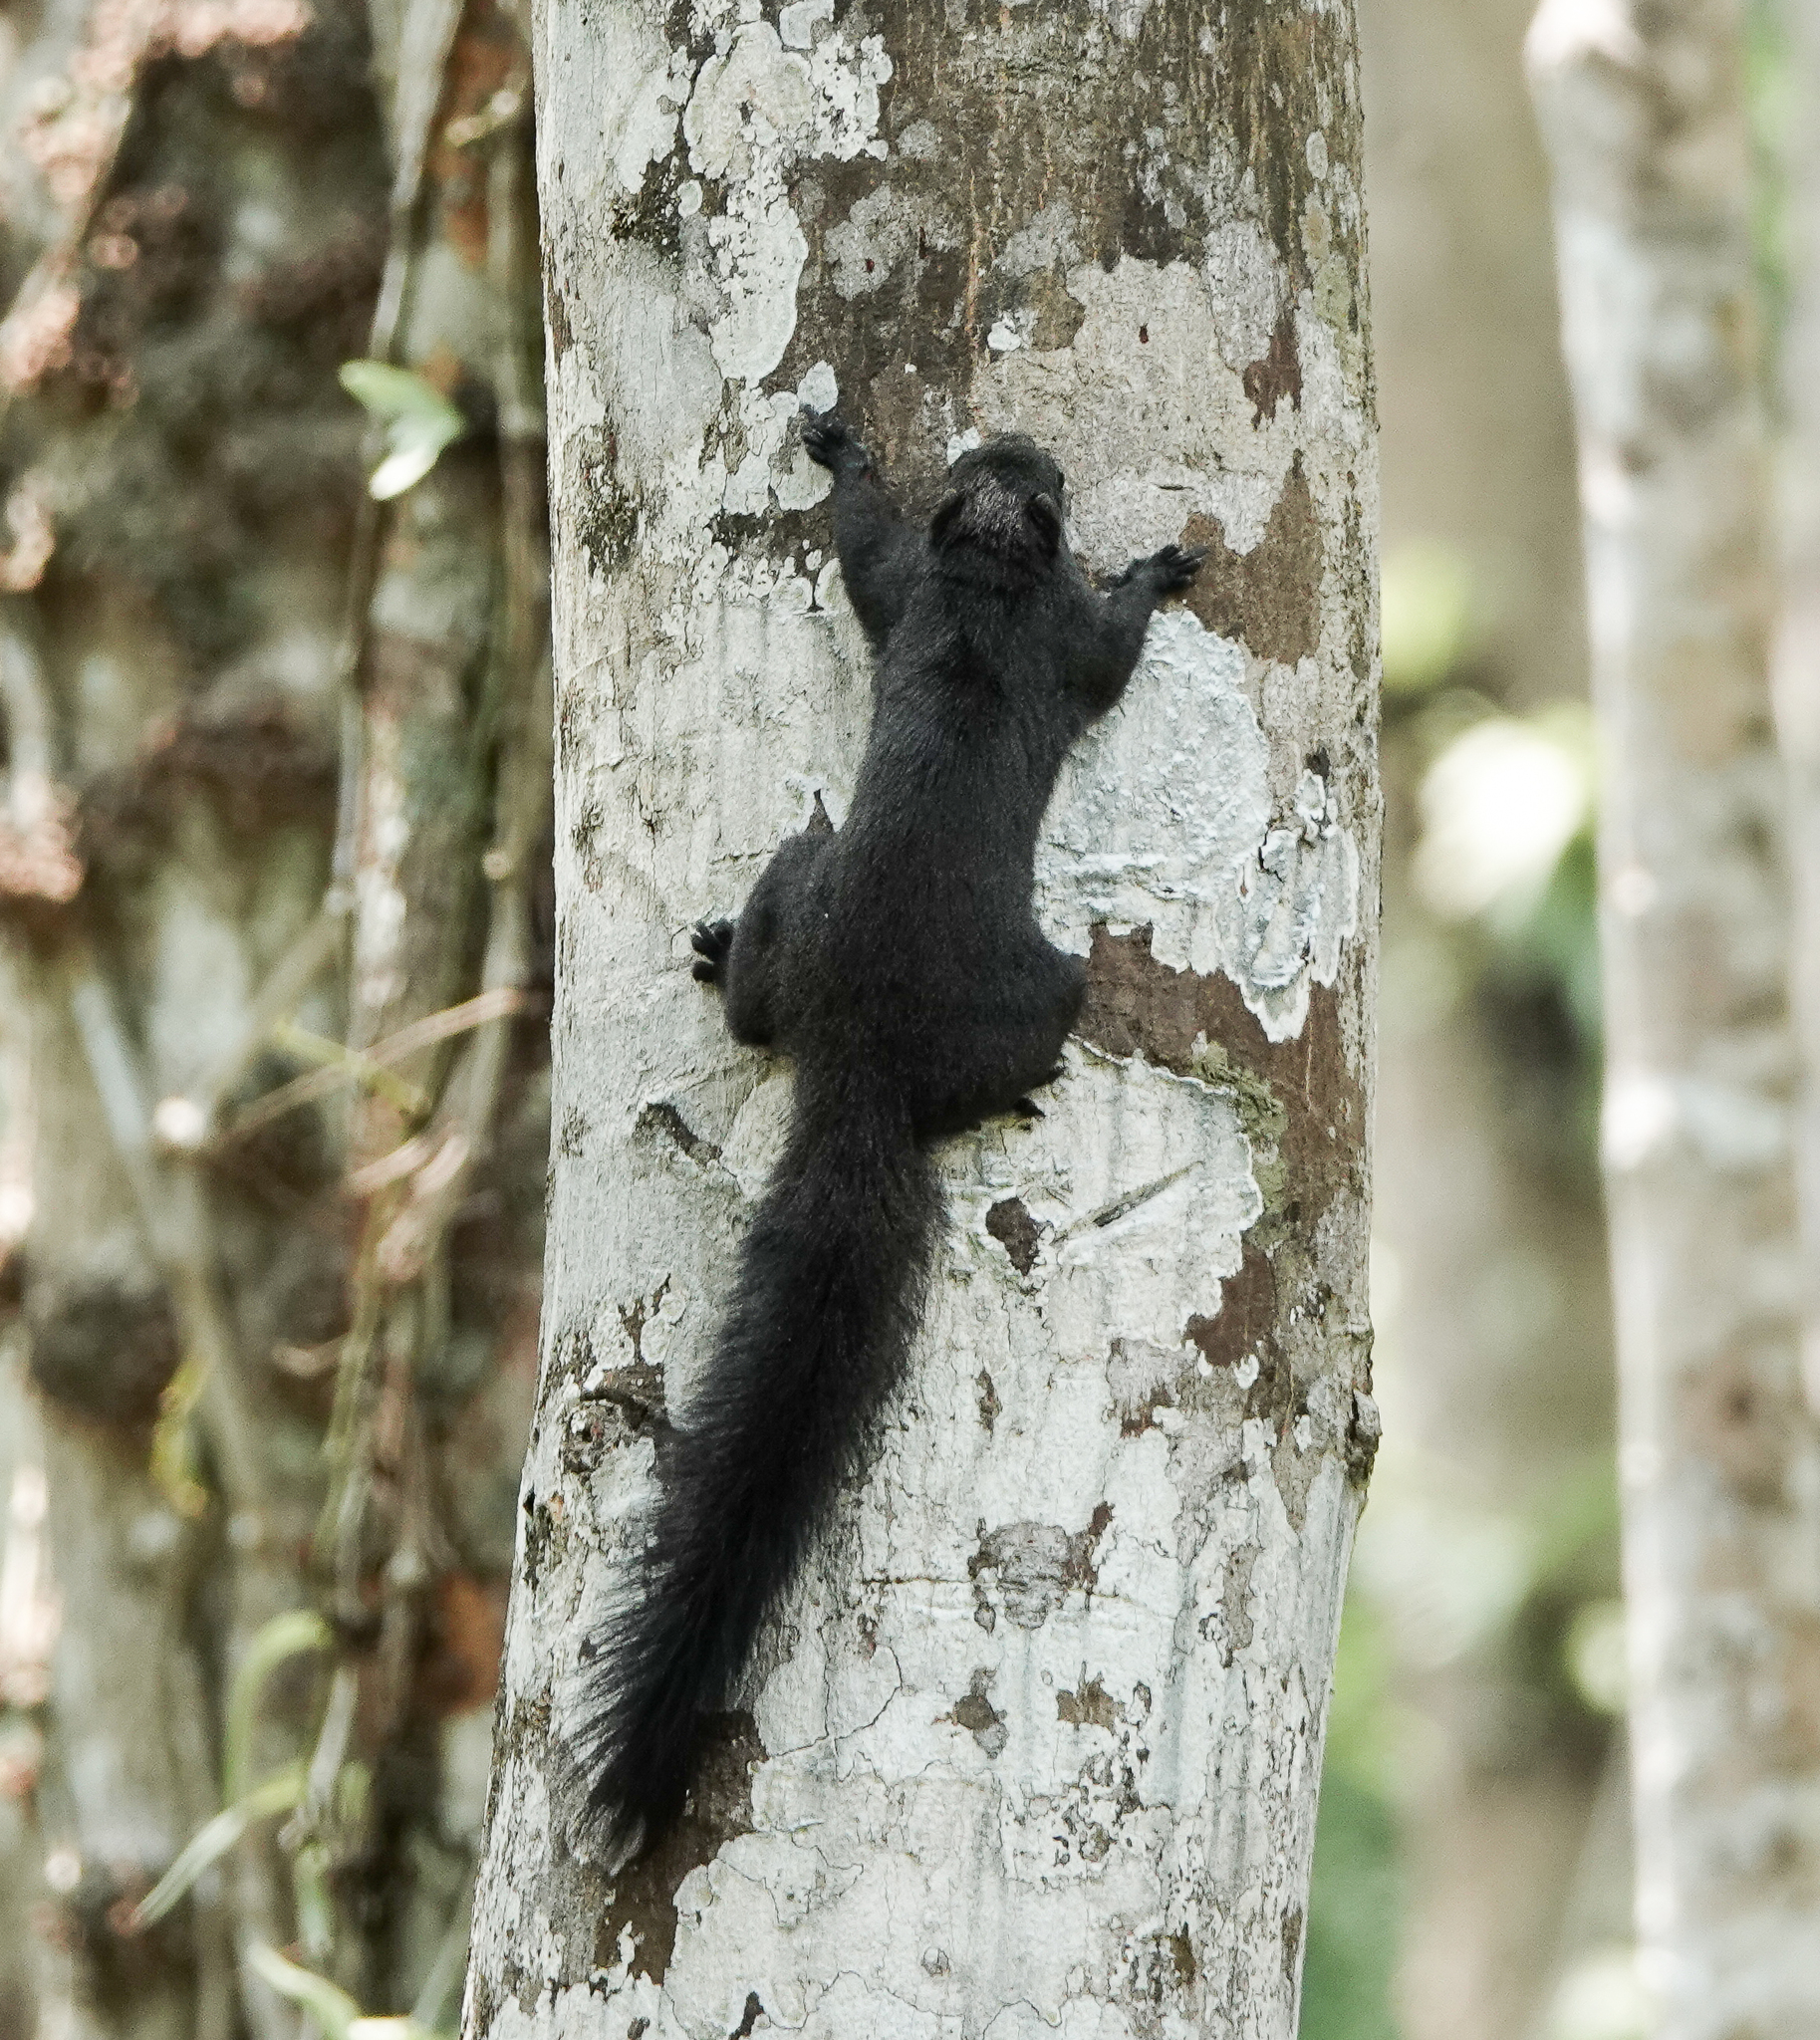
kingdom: Animalia
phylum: Chordata
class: Mammalia
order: Rodentia
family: Sciuridae
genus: Callosciurus
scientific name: Callosciurus erythraeus
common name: Pallas's squirrel
